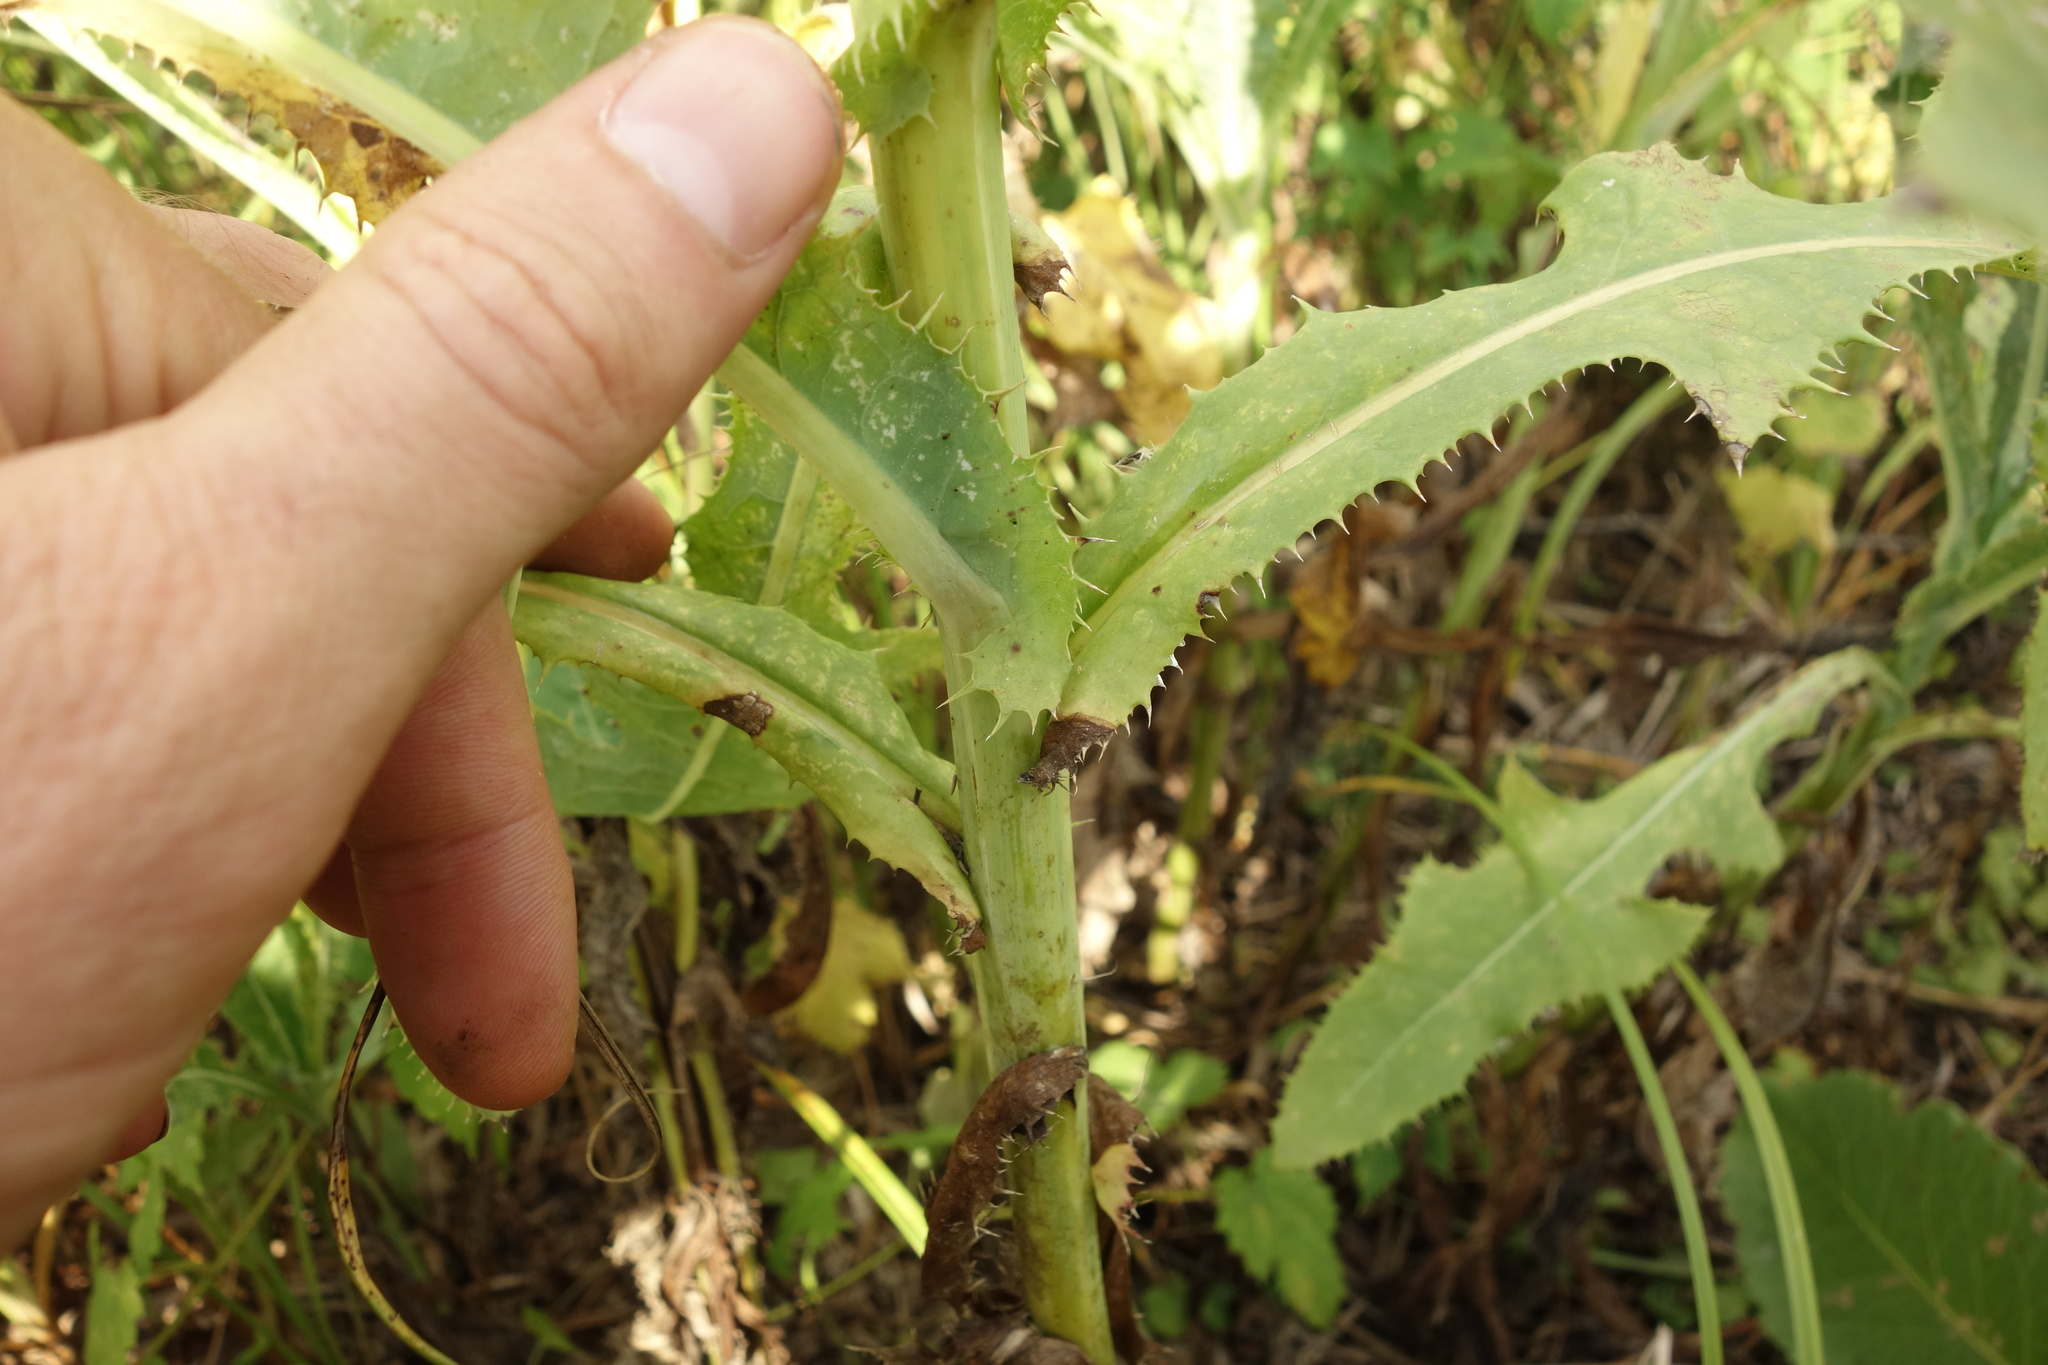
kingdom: Plantae
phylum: Tracheophyta
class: Magnoliopsida
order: Asterales
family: Asteraceae
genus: Sonchus
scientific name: Sonchus arvensis
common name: Perennial sow-thistle
